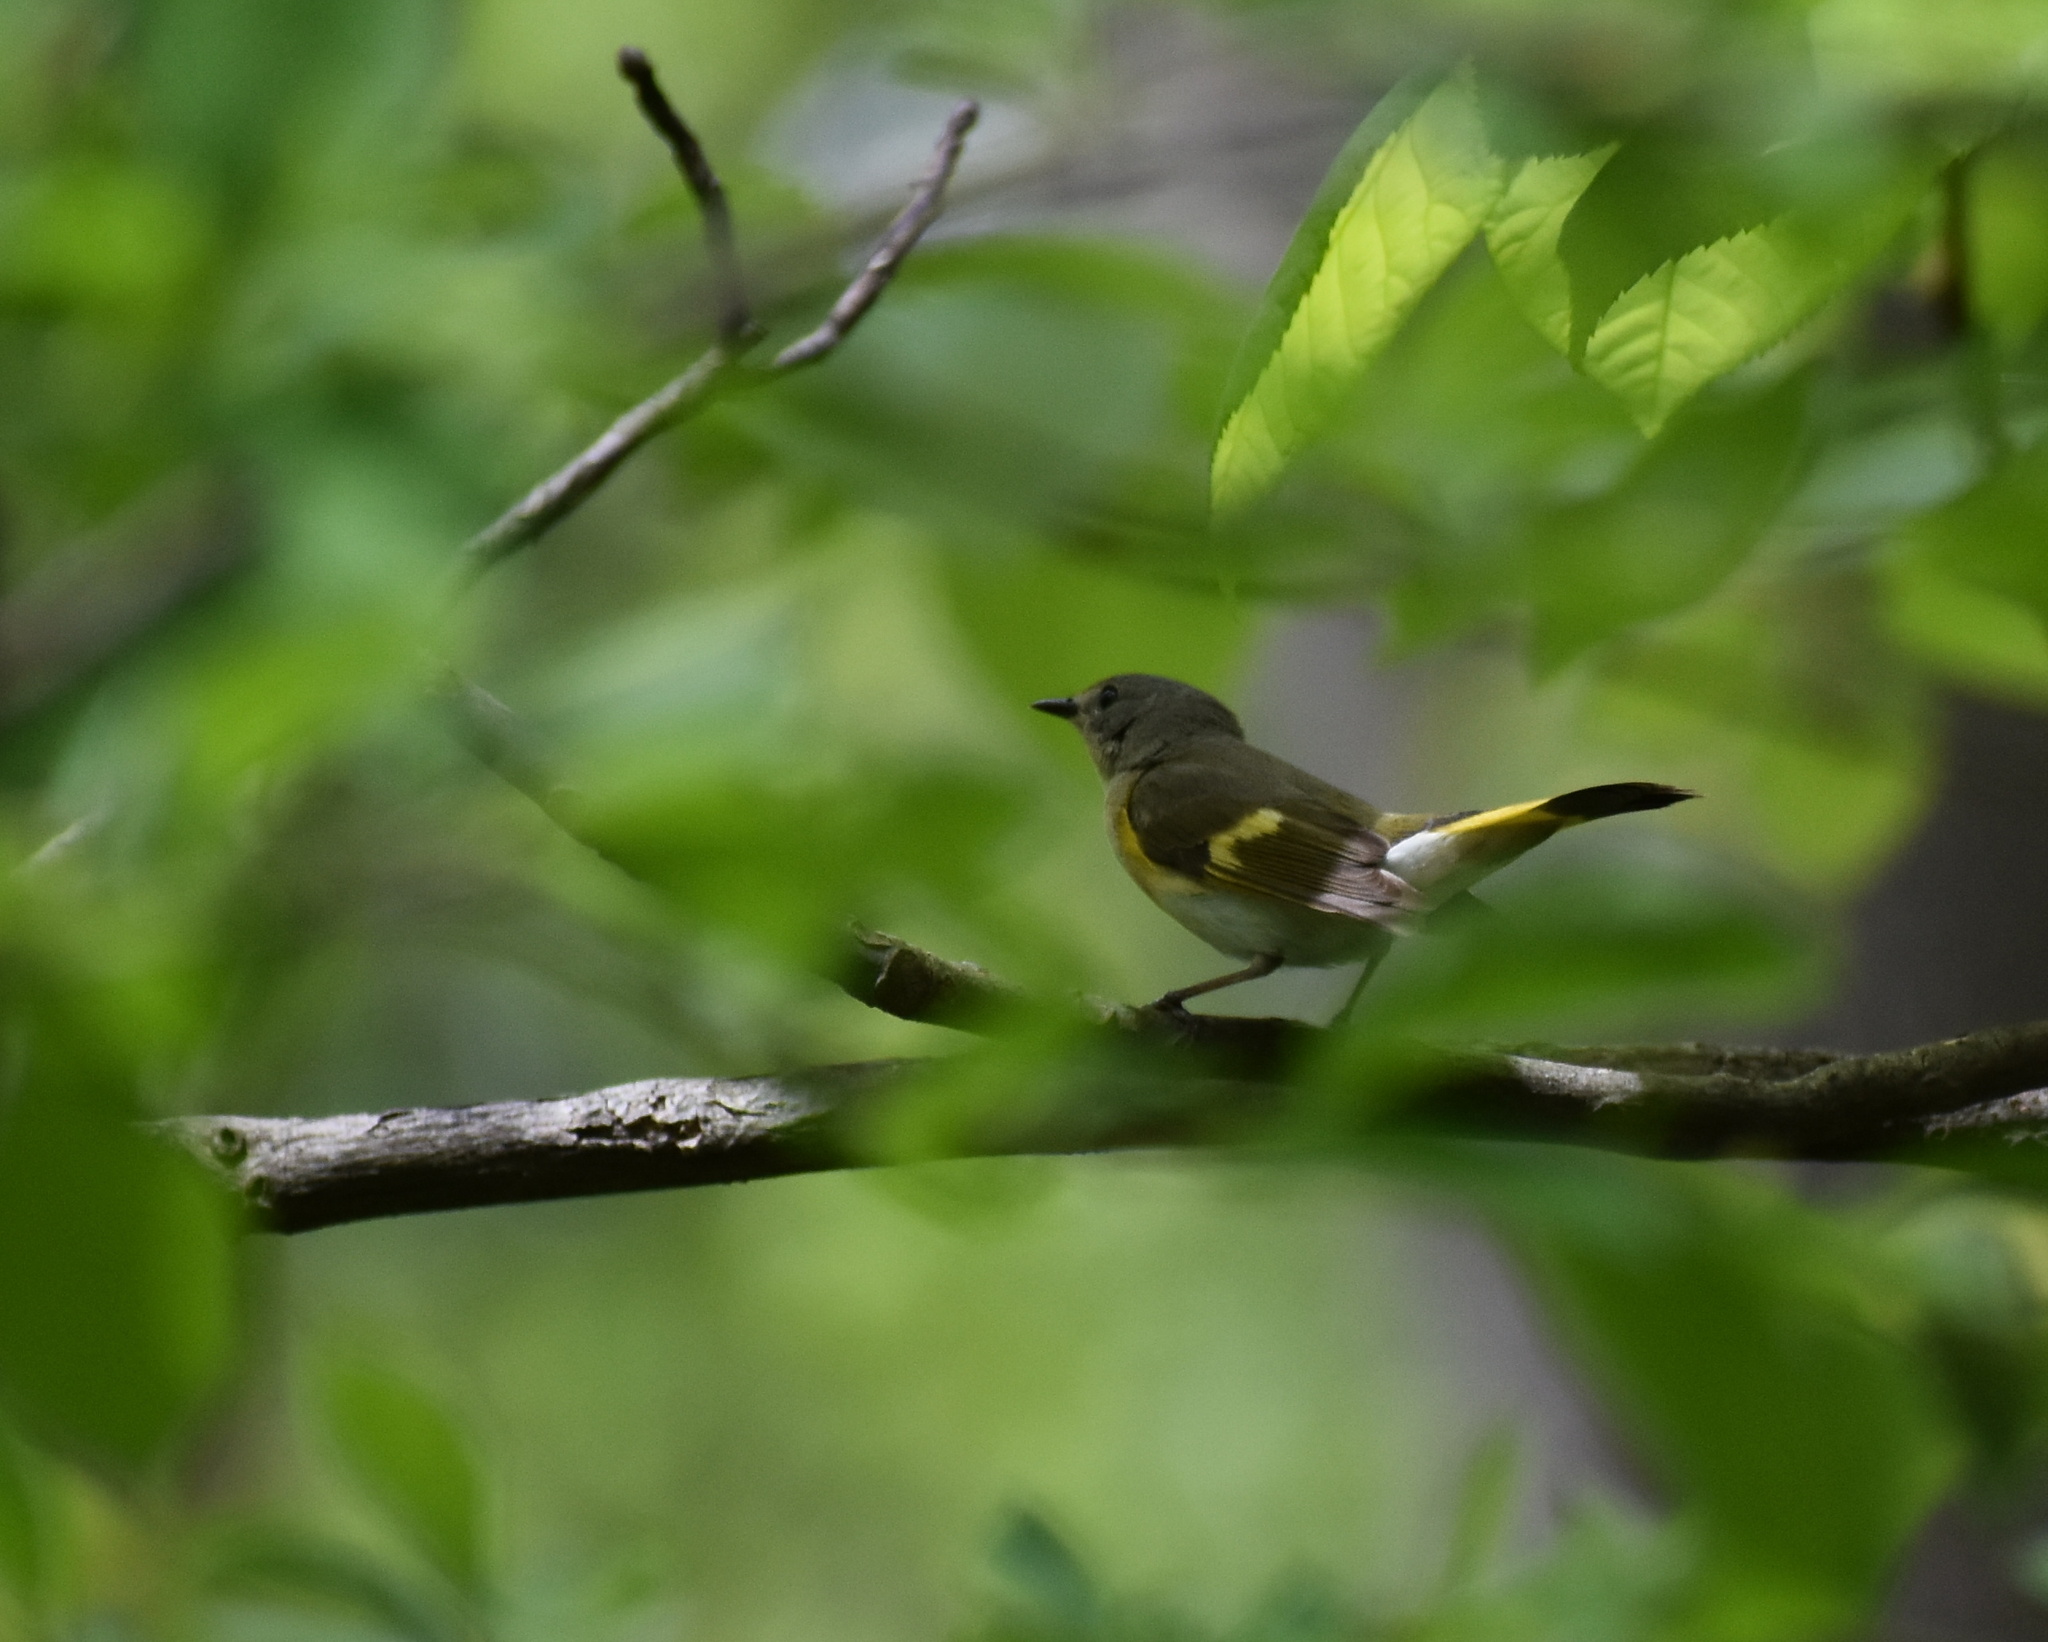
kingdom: Animalia
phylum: Chordata
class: Aves
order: Passeriformes
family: Parulidae
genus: Setophaga
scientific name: Setophaga ruticilla
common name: American redstart
